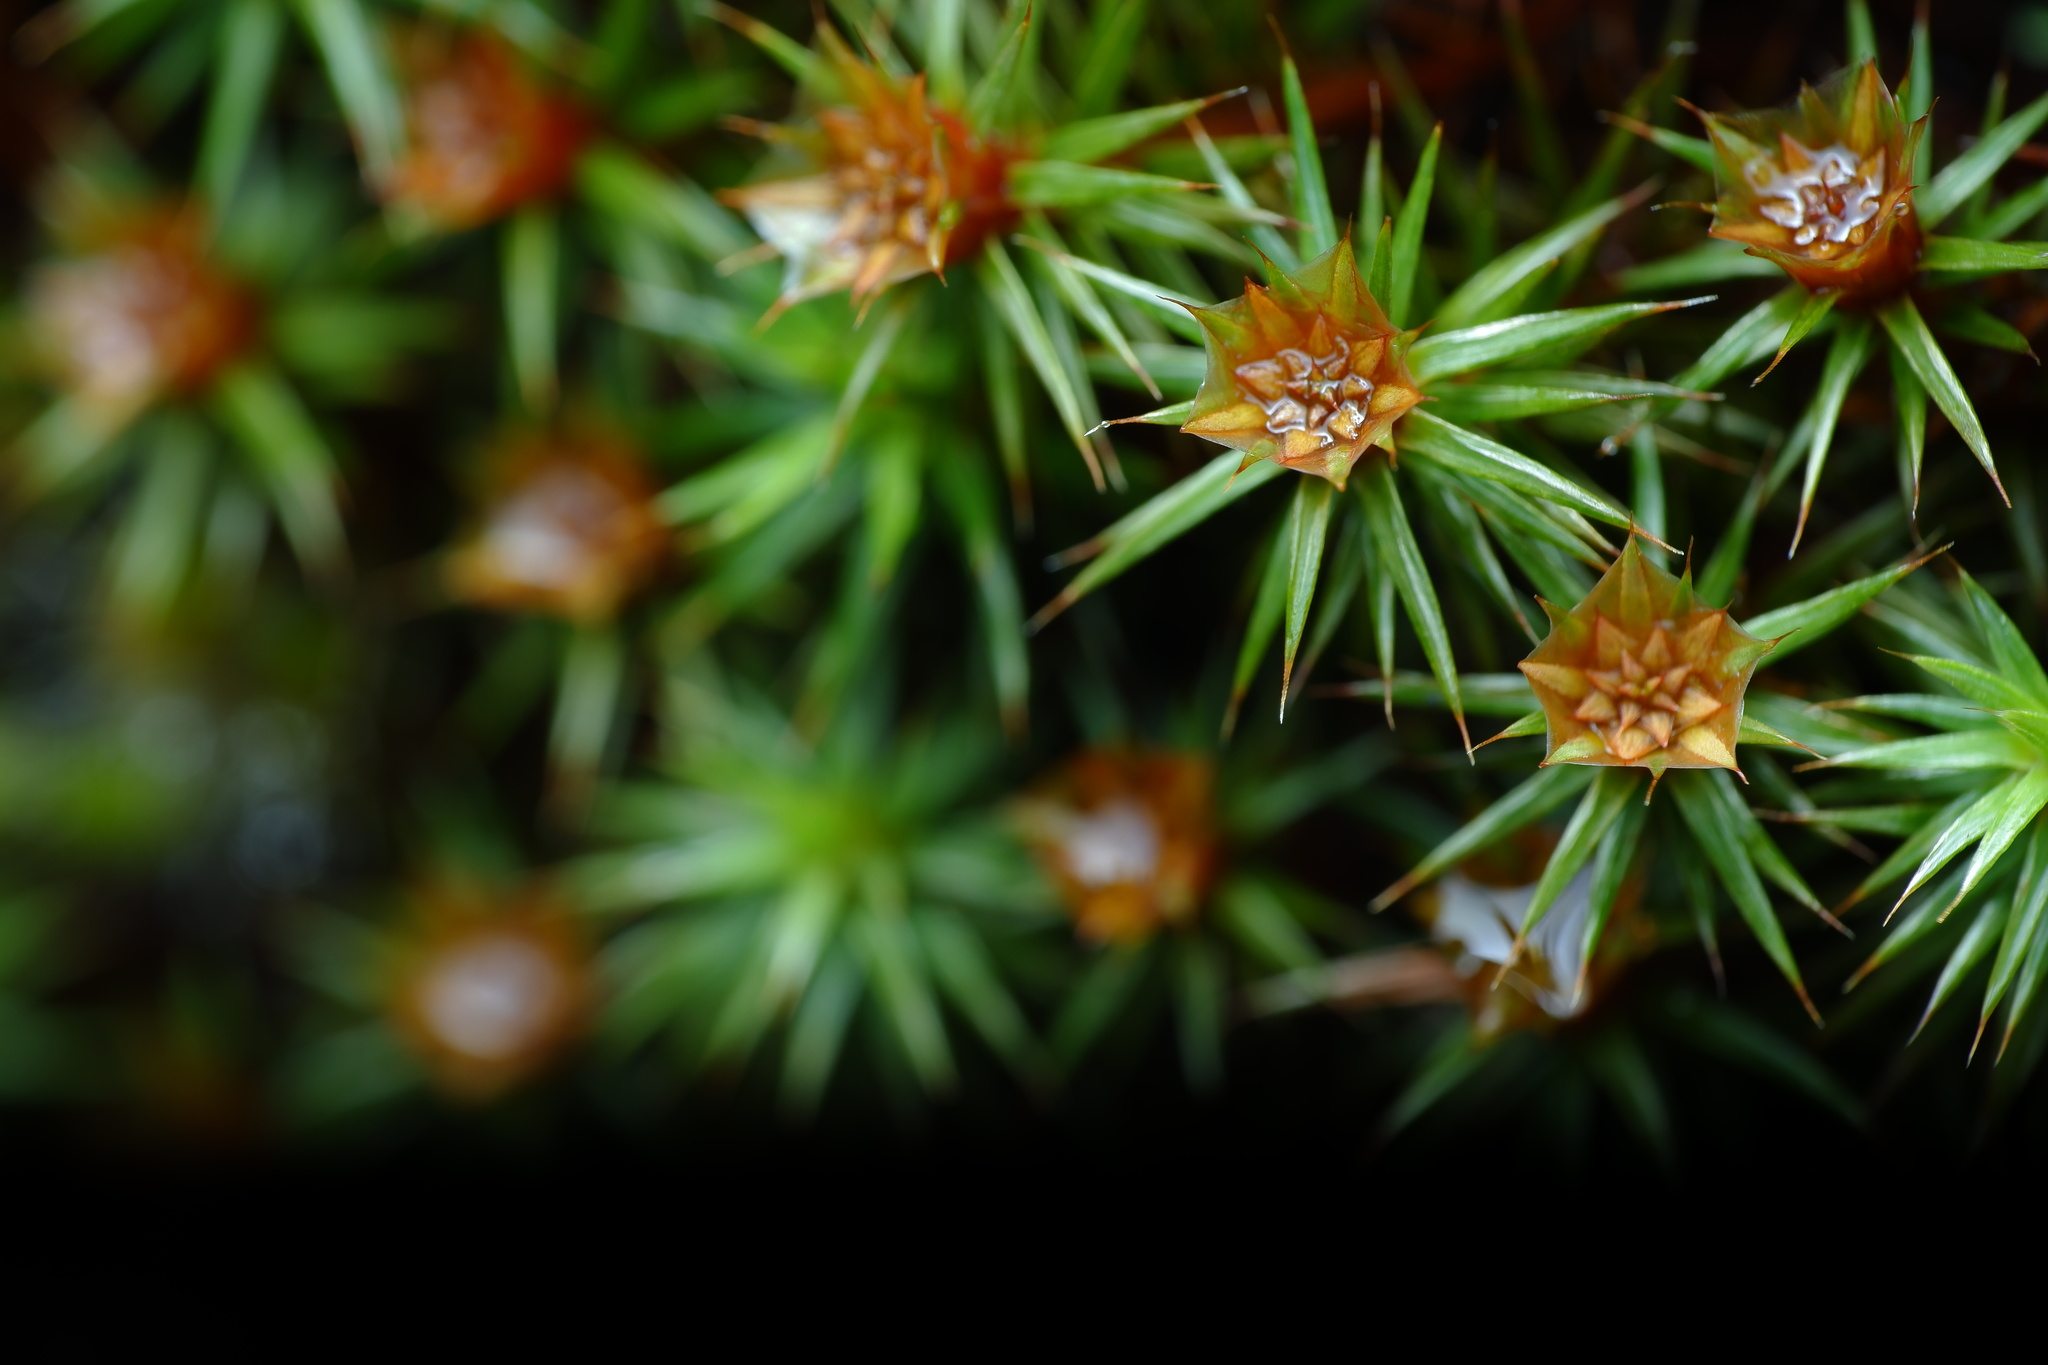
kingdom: Plantae
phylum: Bryophyta
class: Polytrichopsida
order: Polytrichales
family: Polytrichaceae
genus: Polytrichum
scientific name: Polytrichum juniperinum
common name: Juniper haircap moss
